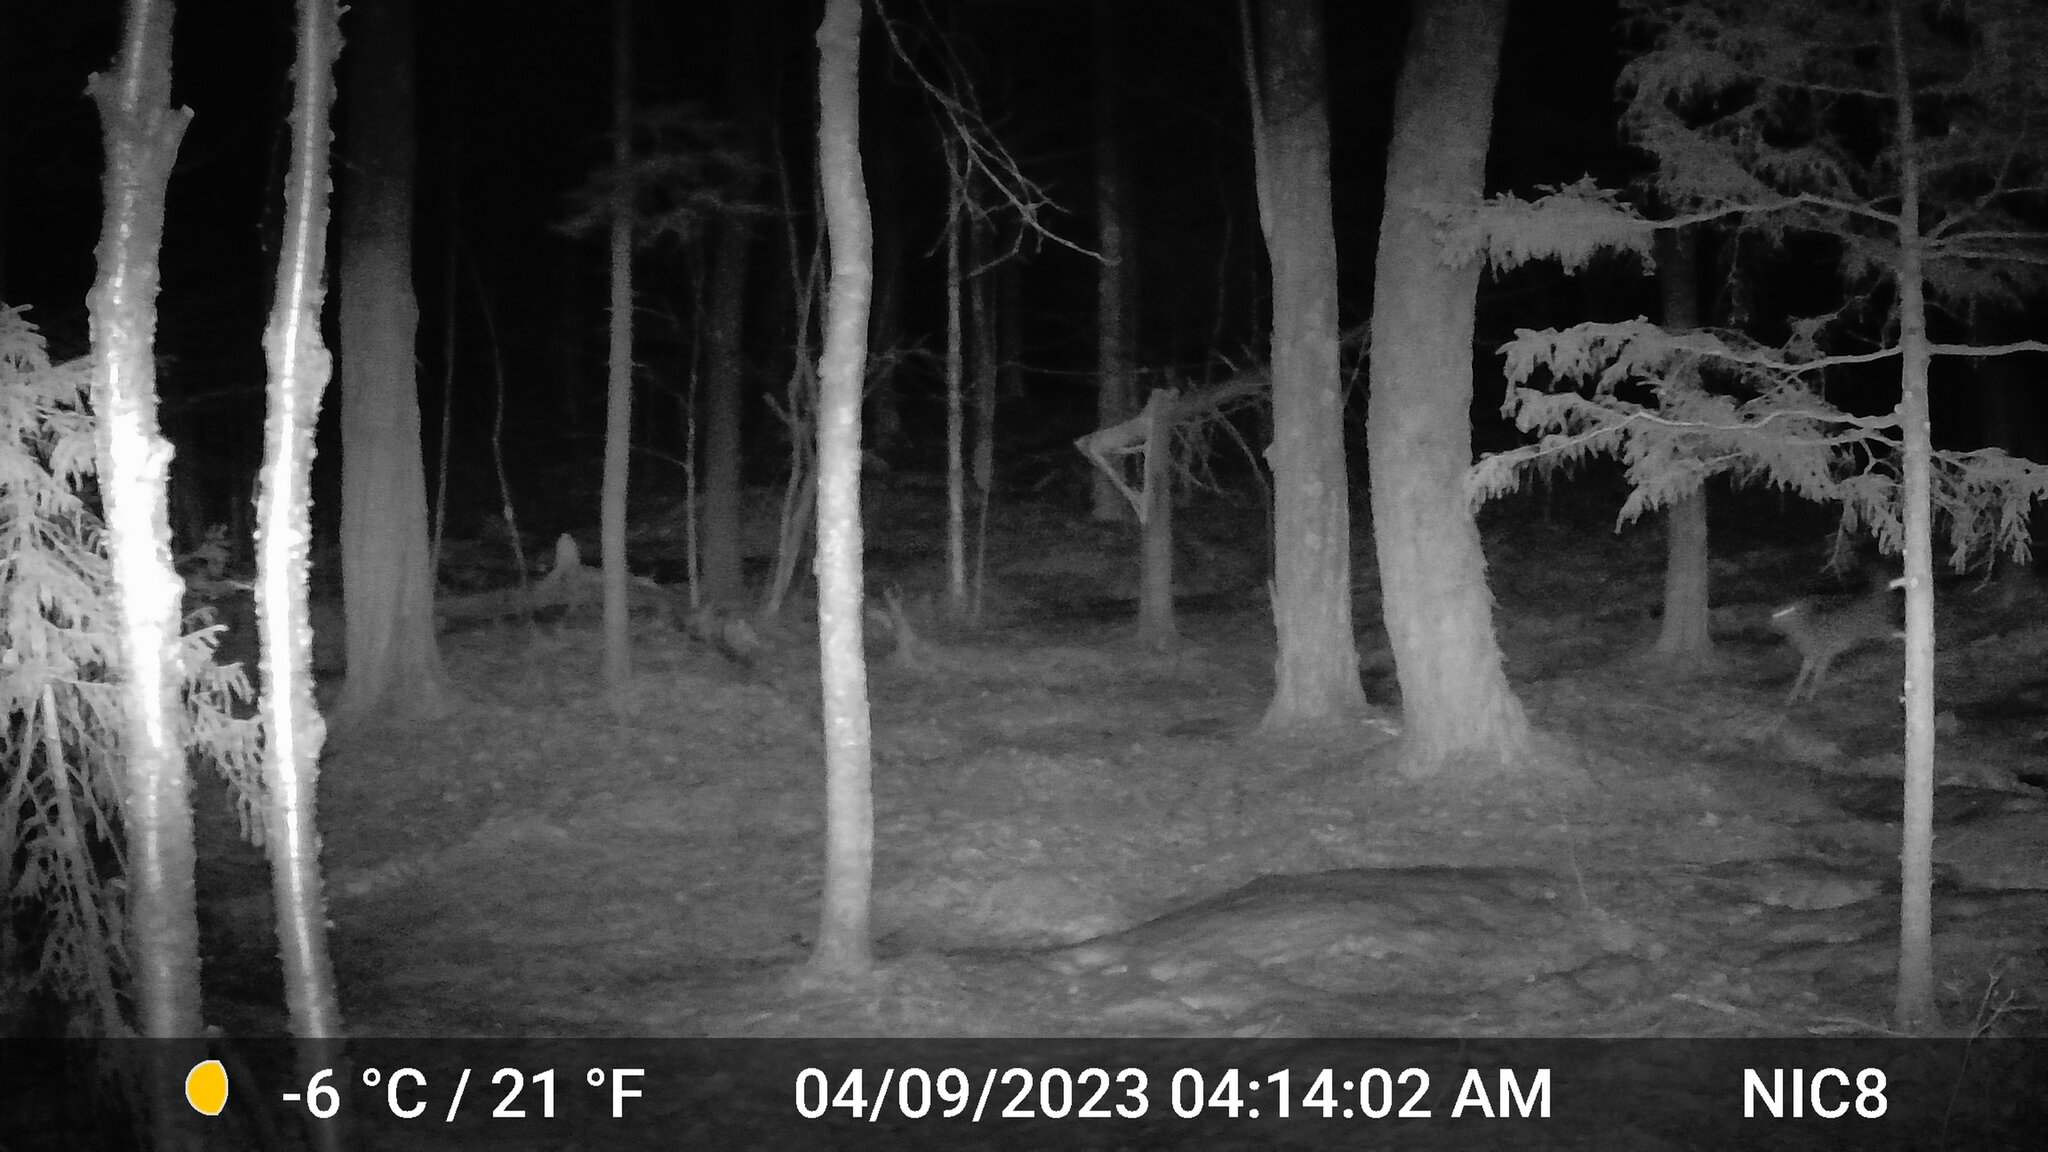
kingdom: Animalia
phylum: Chordata
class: Mammalia
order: Artiodactyla
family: Cervidae
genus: Odocoileus
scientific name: Odocoileus virginianus
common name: White-tailed deer
